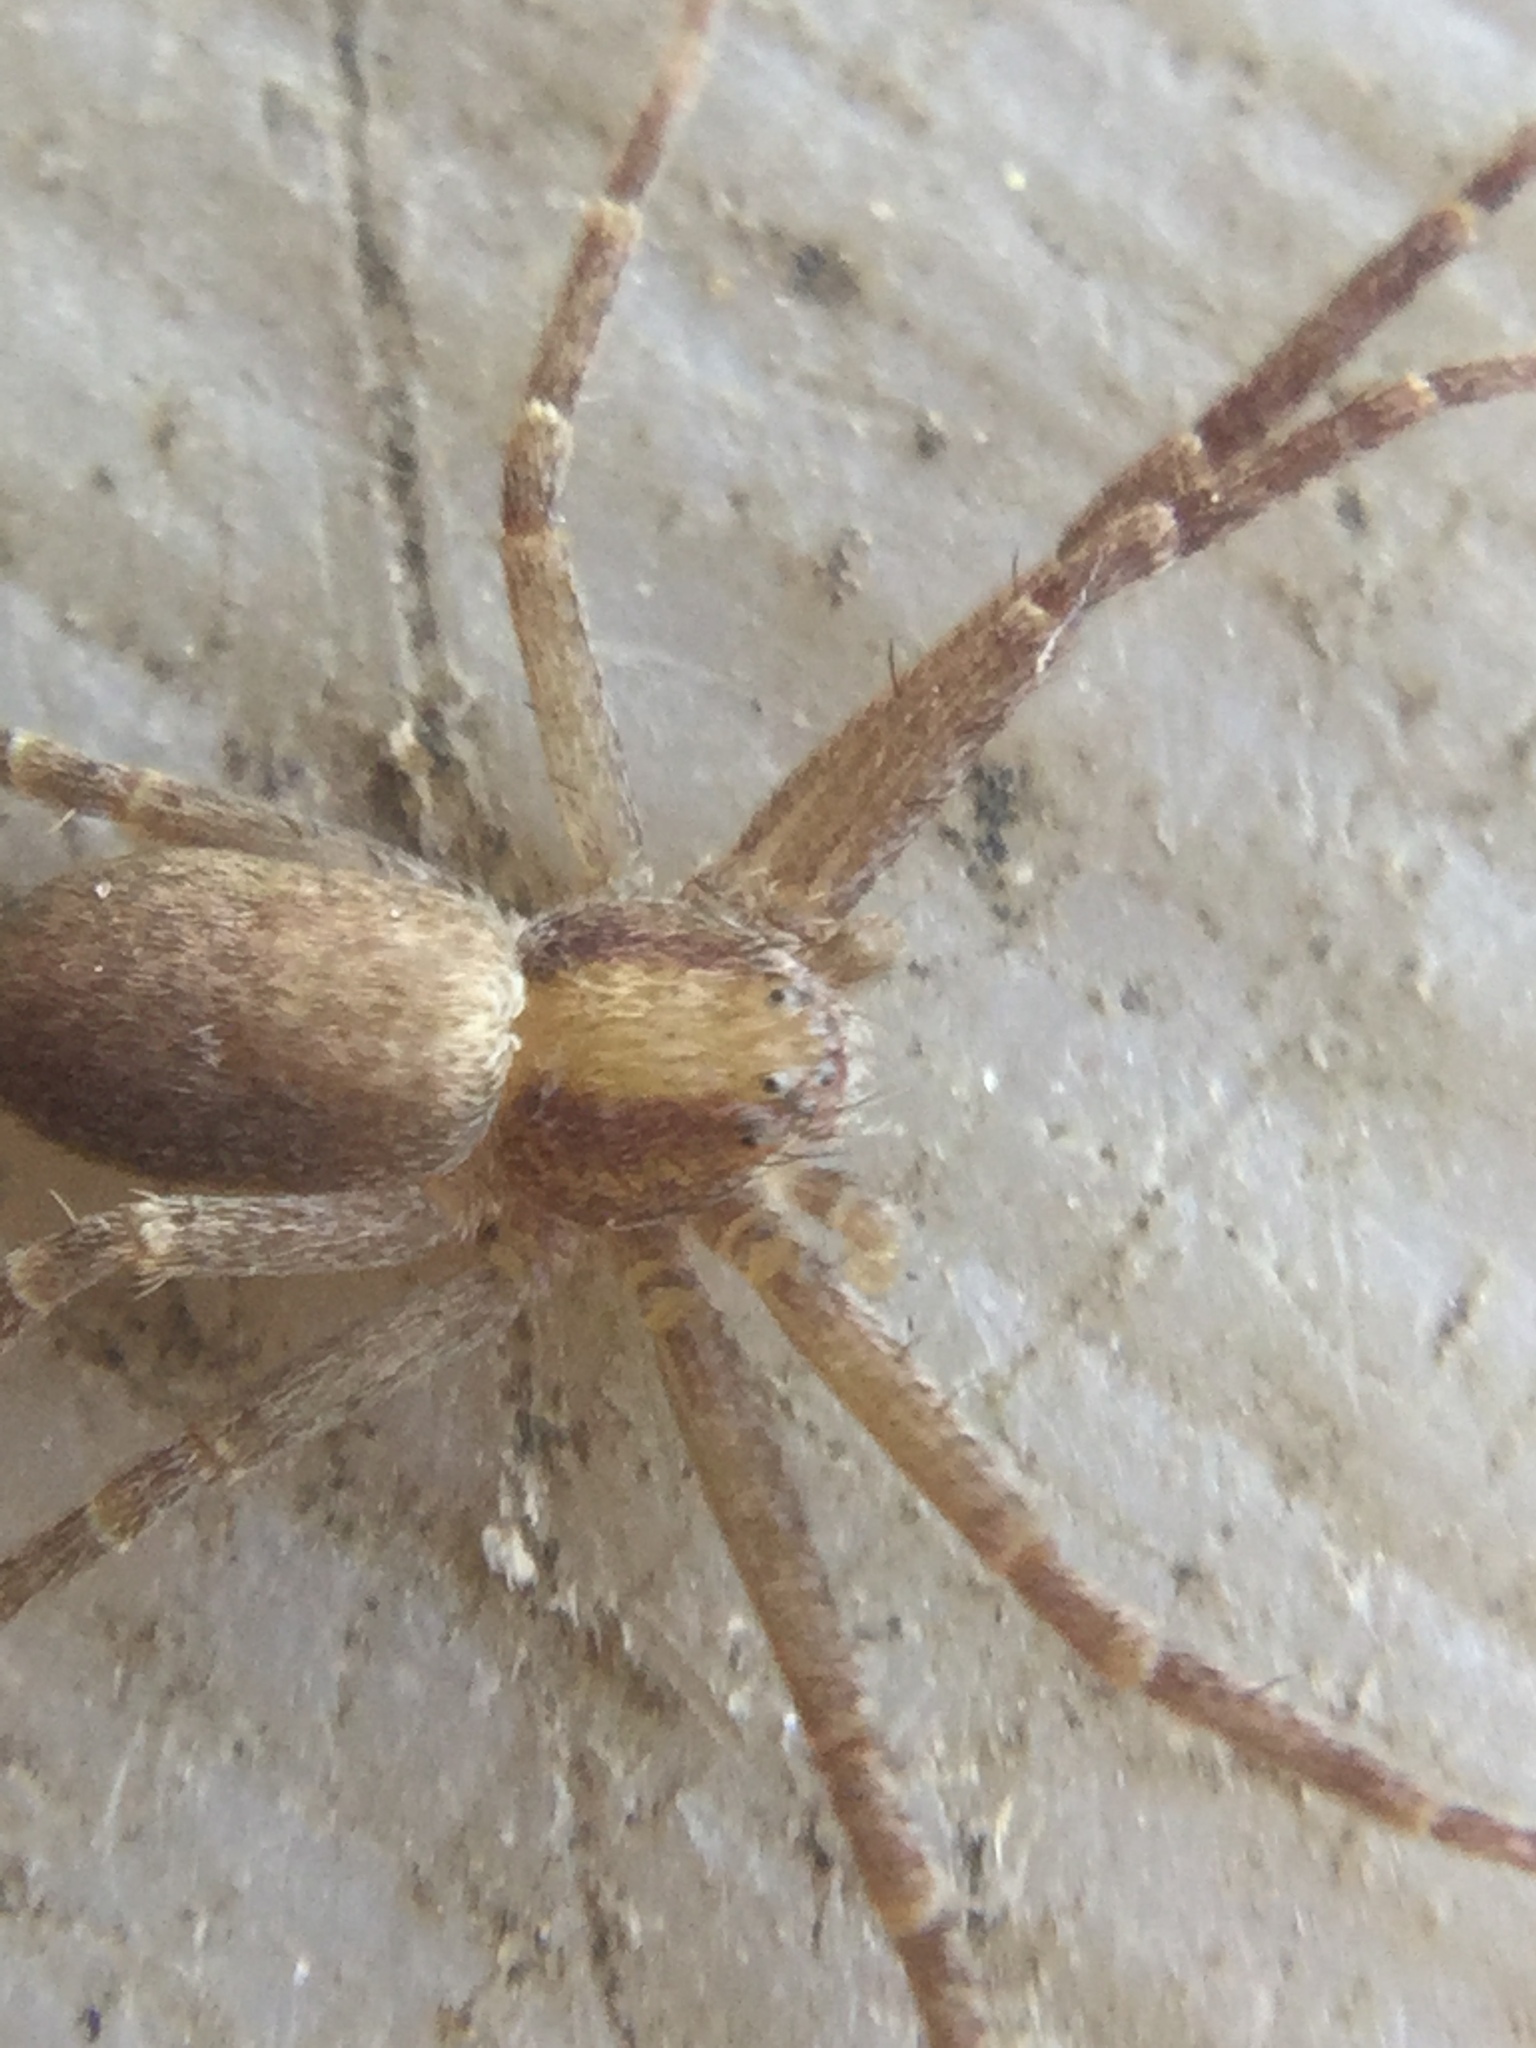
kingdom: Animalia
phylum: Arthropoda
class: Arachnida
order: Araneae
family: Philodromidae
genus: Philodromus
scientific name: Philodromus rufus
